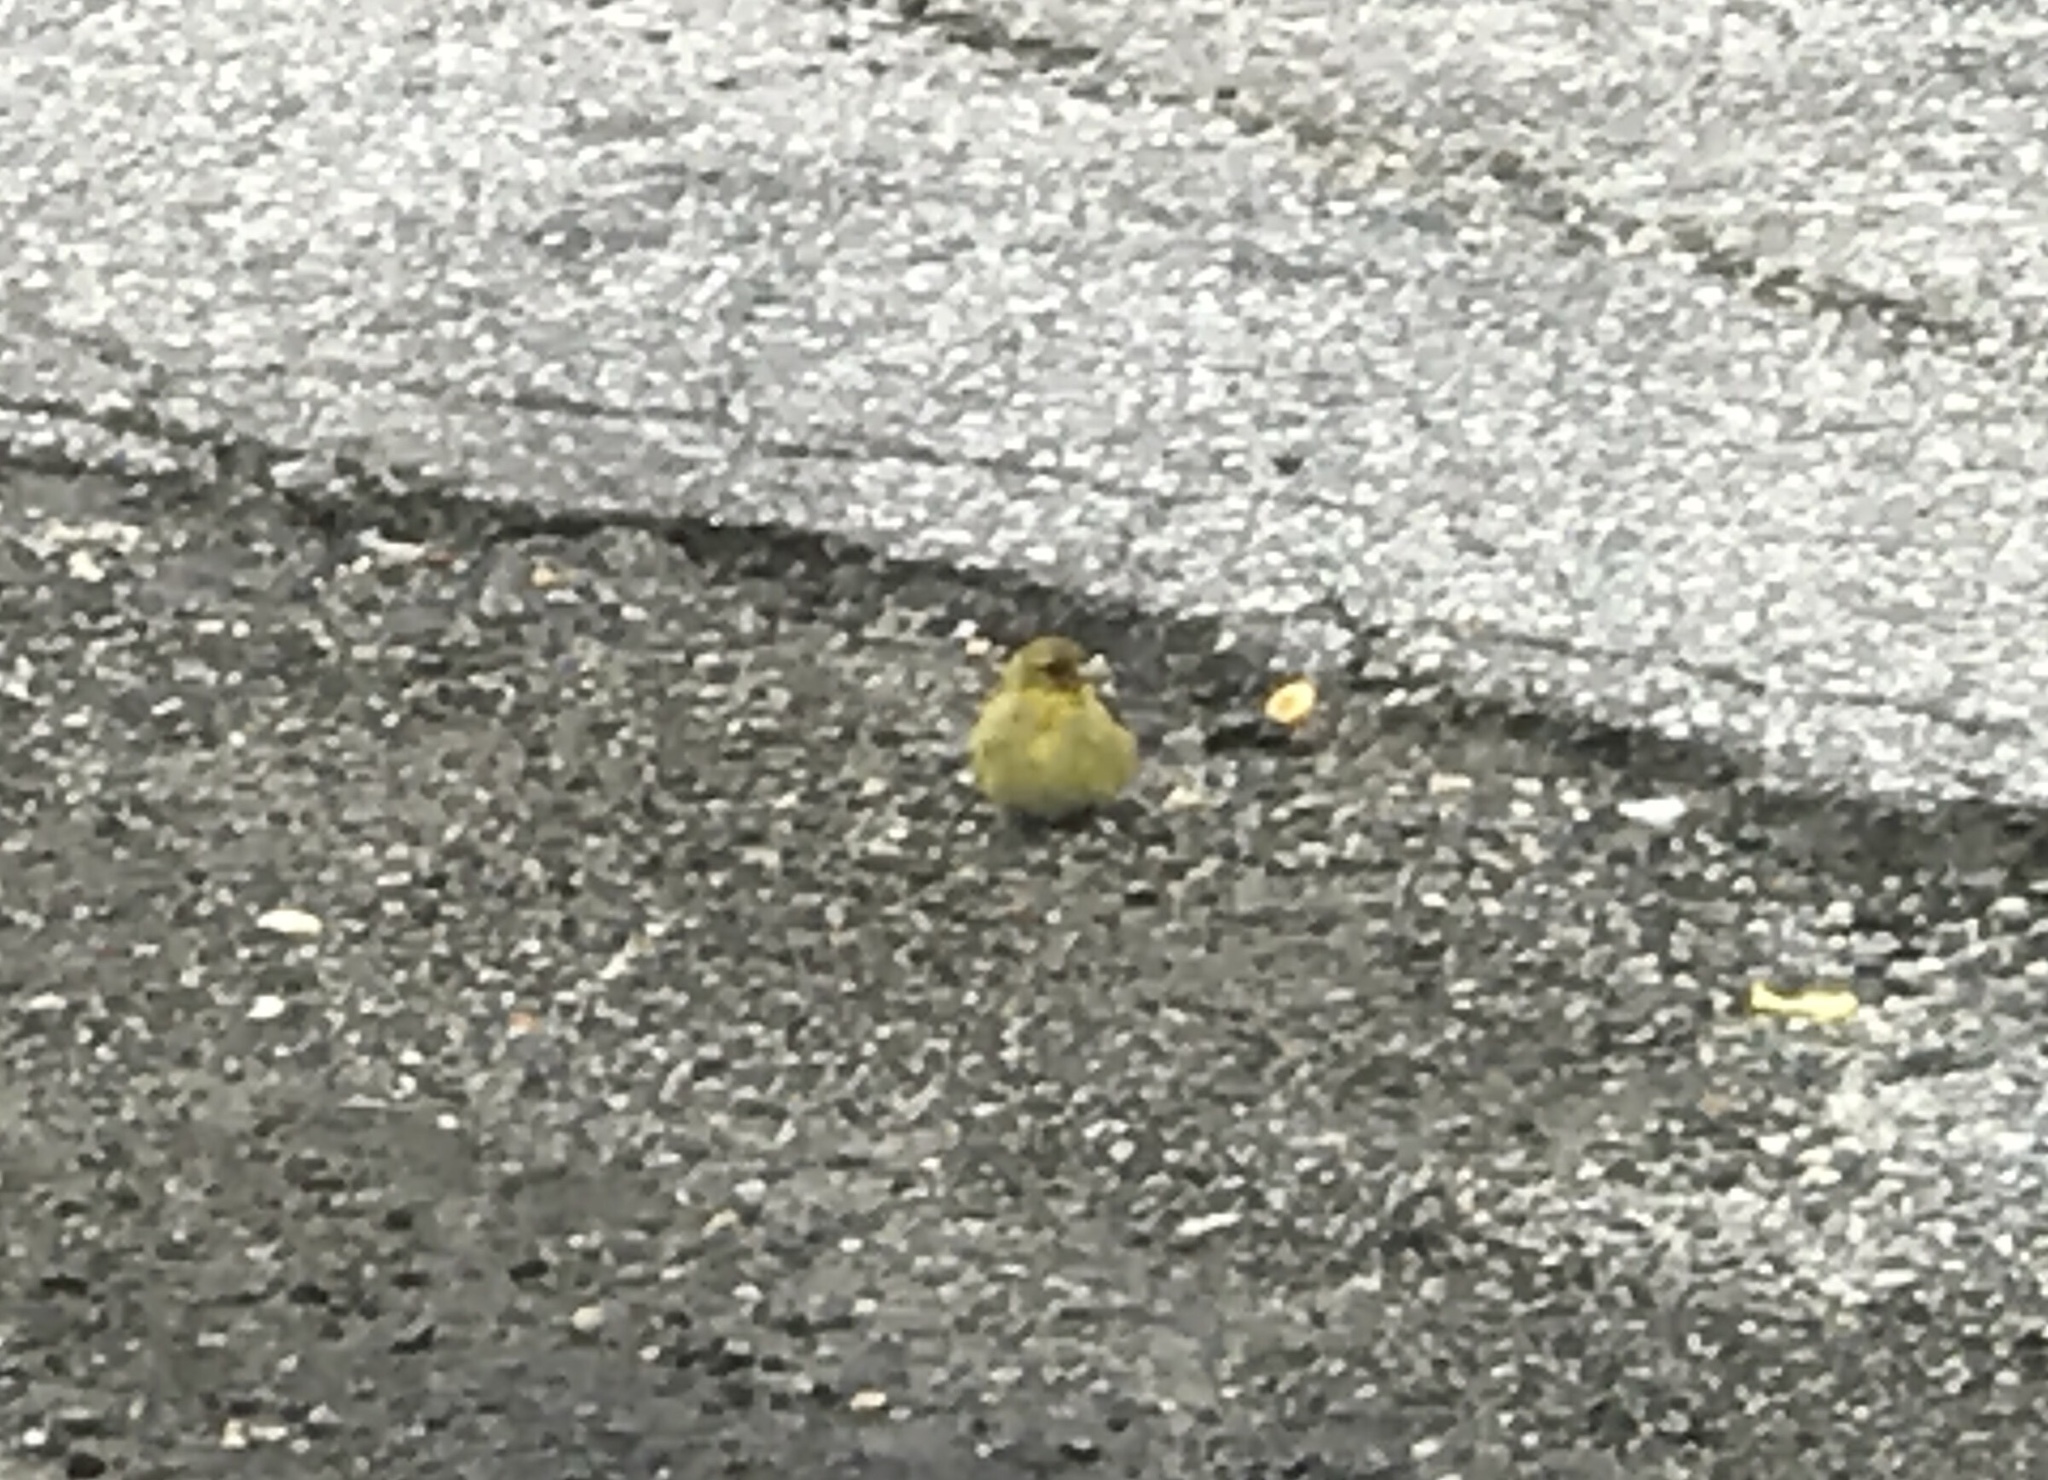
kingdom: Animalia
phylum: Chordata
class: Aves
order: Passeriformes
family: Fringillidae
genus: Spinus
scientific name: Spinus tristis
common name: American goldfinch
